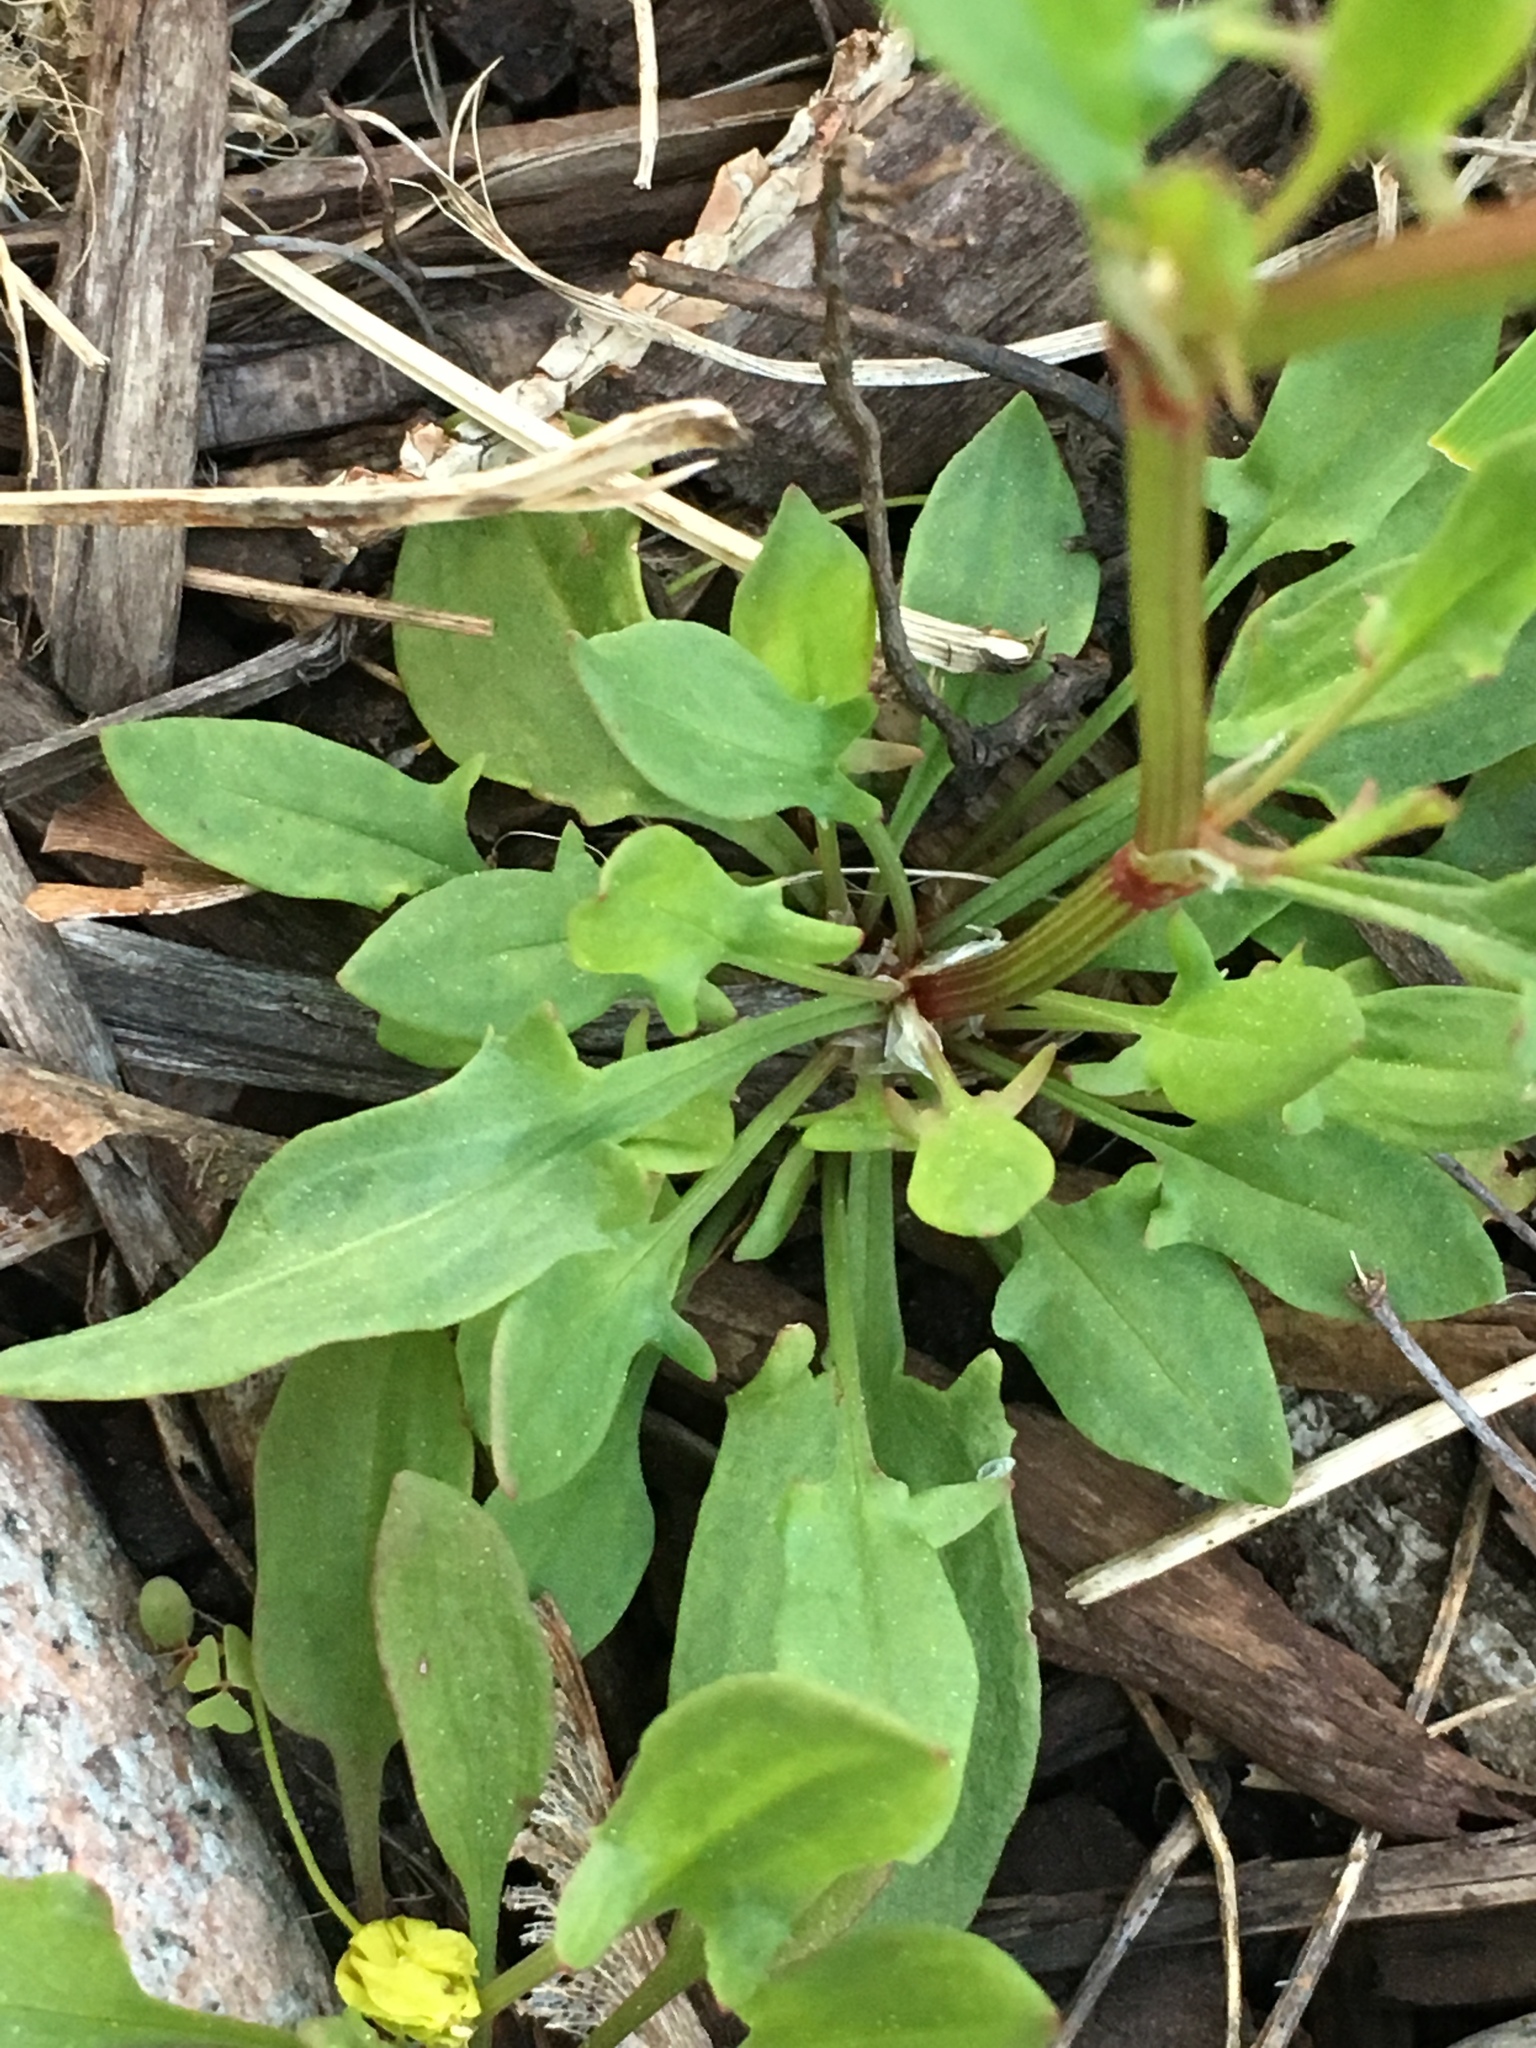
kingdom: Plantae
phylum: Tracheophyta
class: Magnoliopsida
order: Caryophyllales
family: Polygonaceae
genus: Rumex
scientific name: Rumex acetosella
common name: Common sheep sorrel
